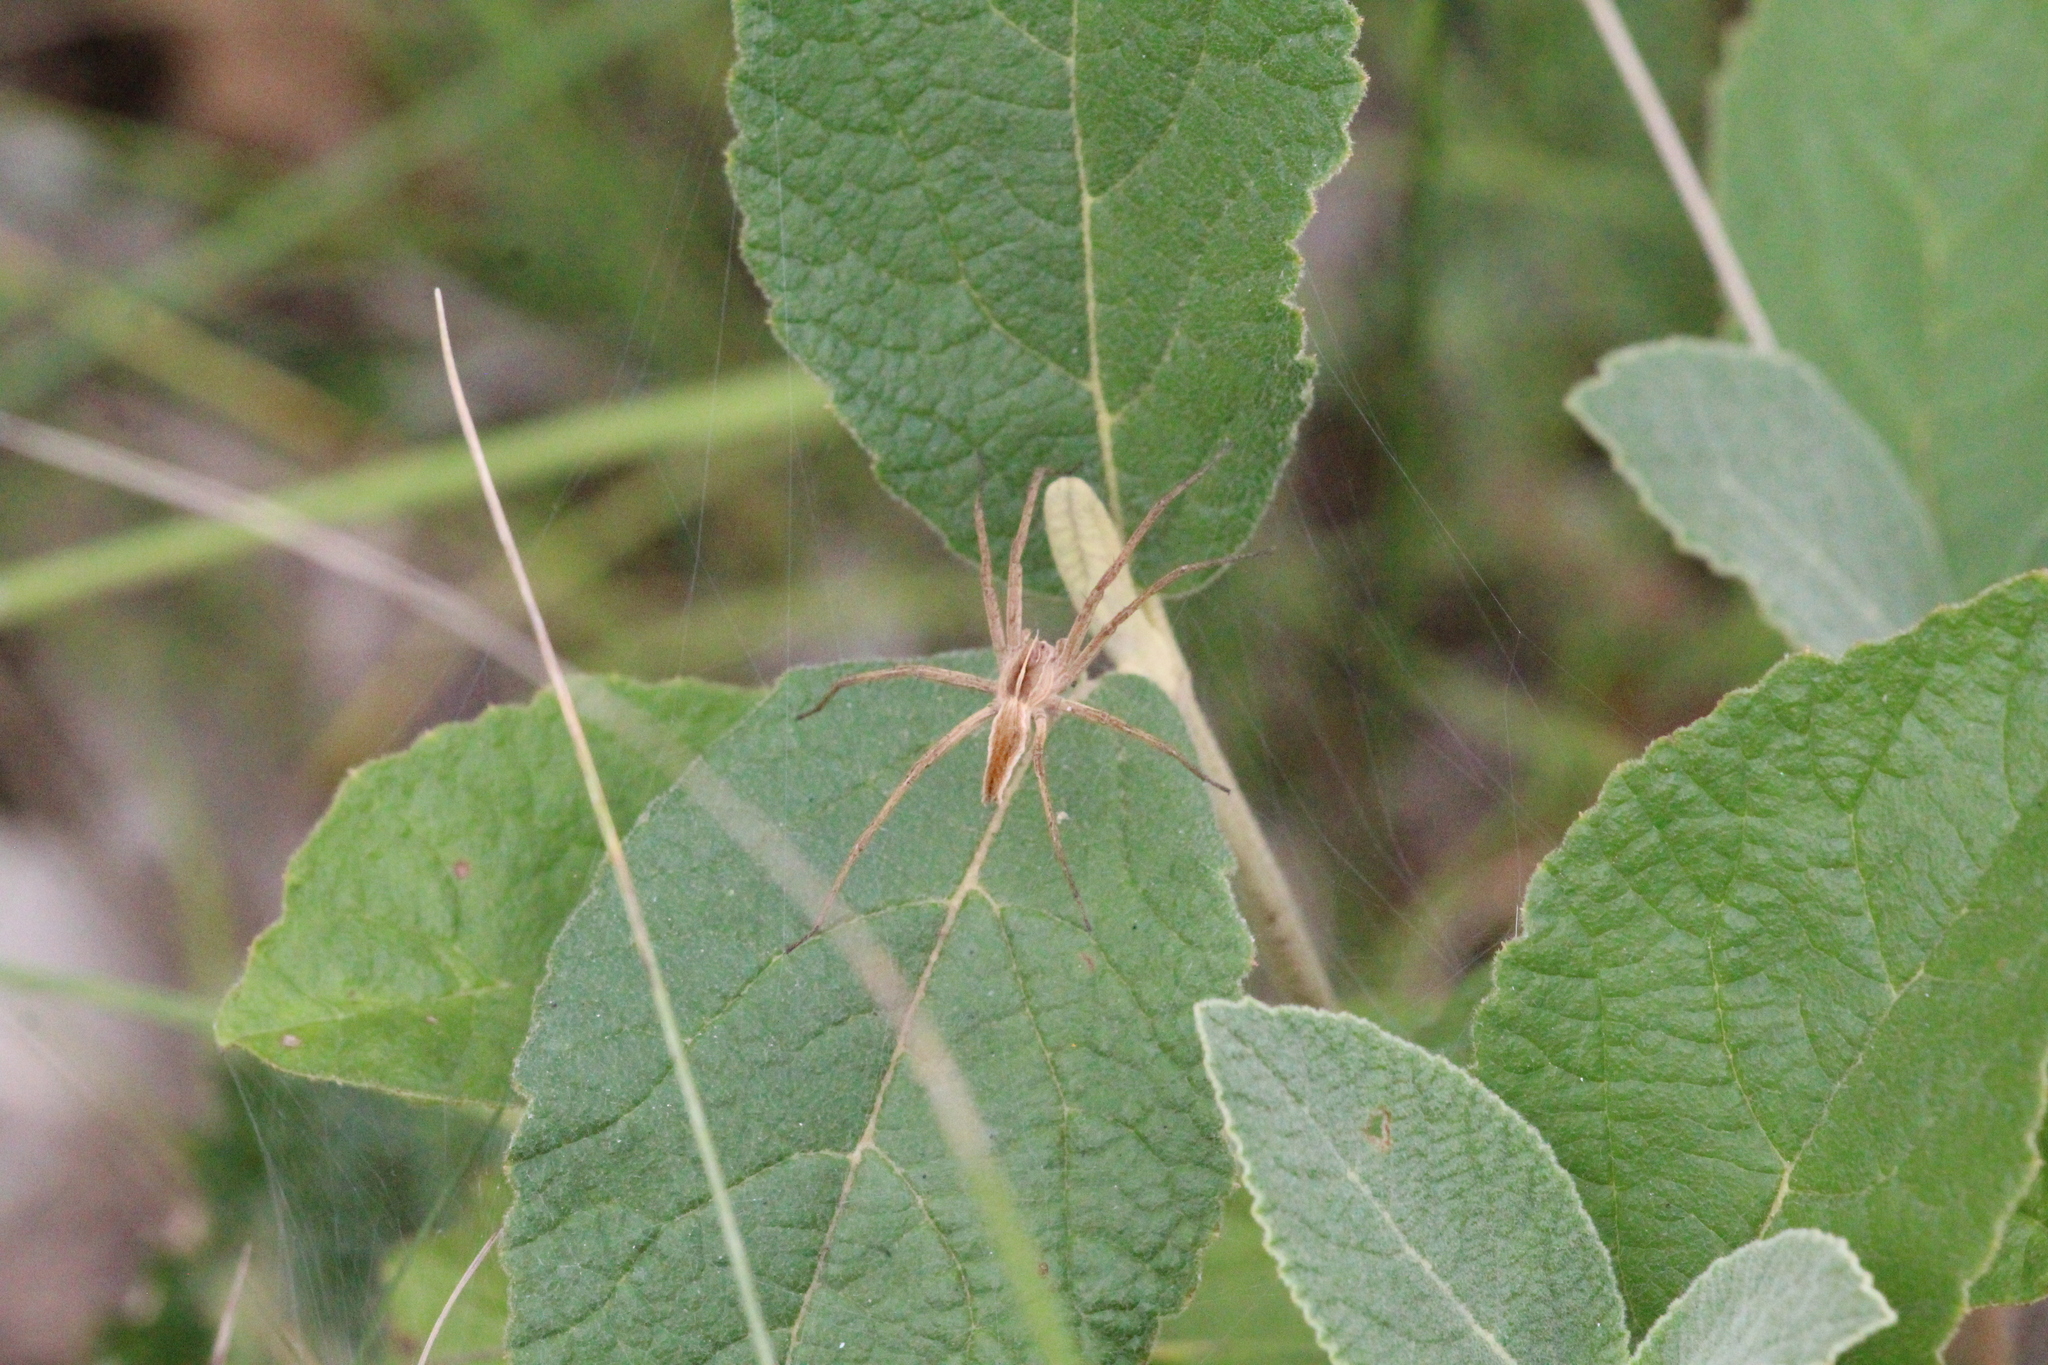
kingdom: Animalia
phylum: Arthropoda
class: Arachnida
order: Araneae
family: Pisauridae
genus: Pisaura
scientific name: Pisaura mirabilis
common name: Tent spider
